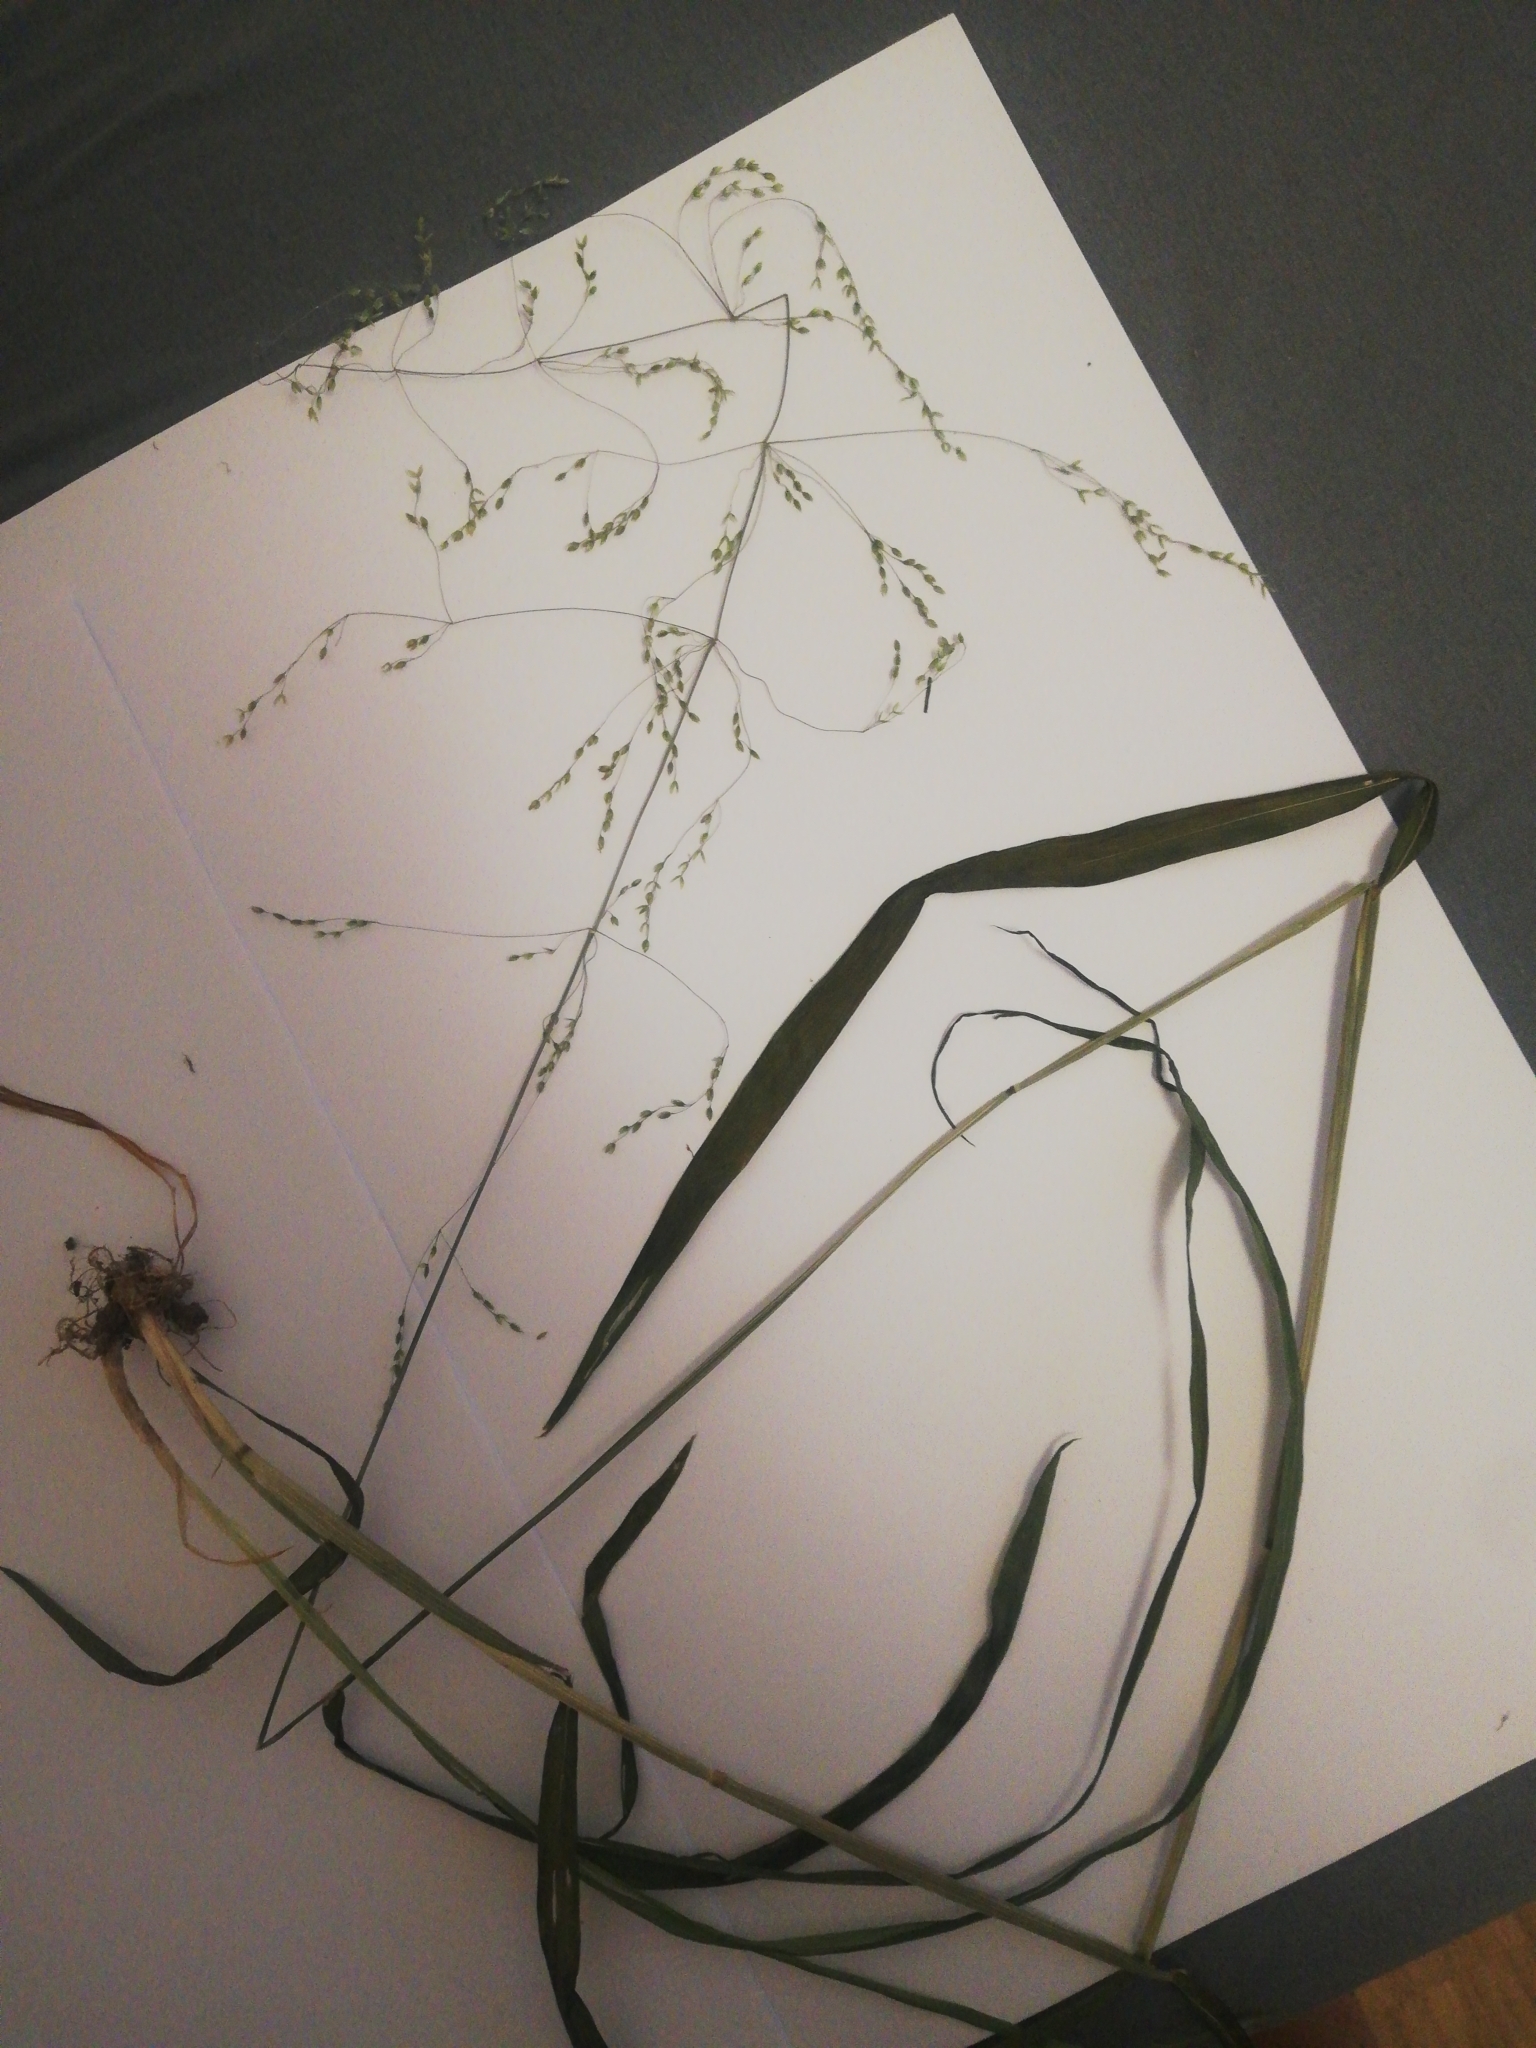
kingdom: Plantae
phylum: Tracheophyta
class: Liliopsida
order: Poales
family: Poaceae
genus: Milium
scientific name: Milium effusum
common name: Wood millet
